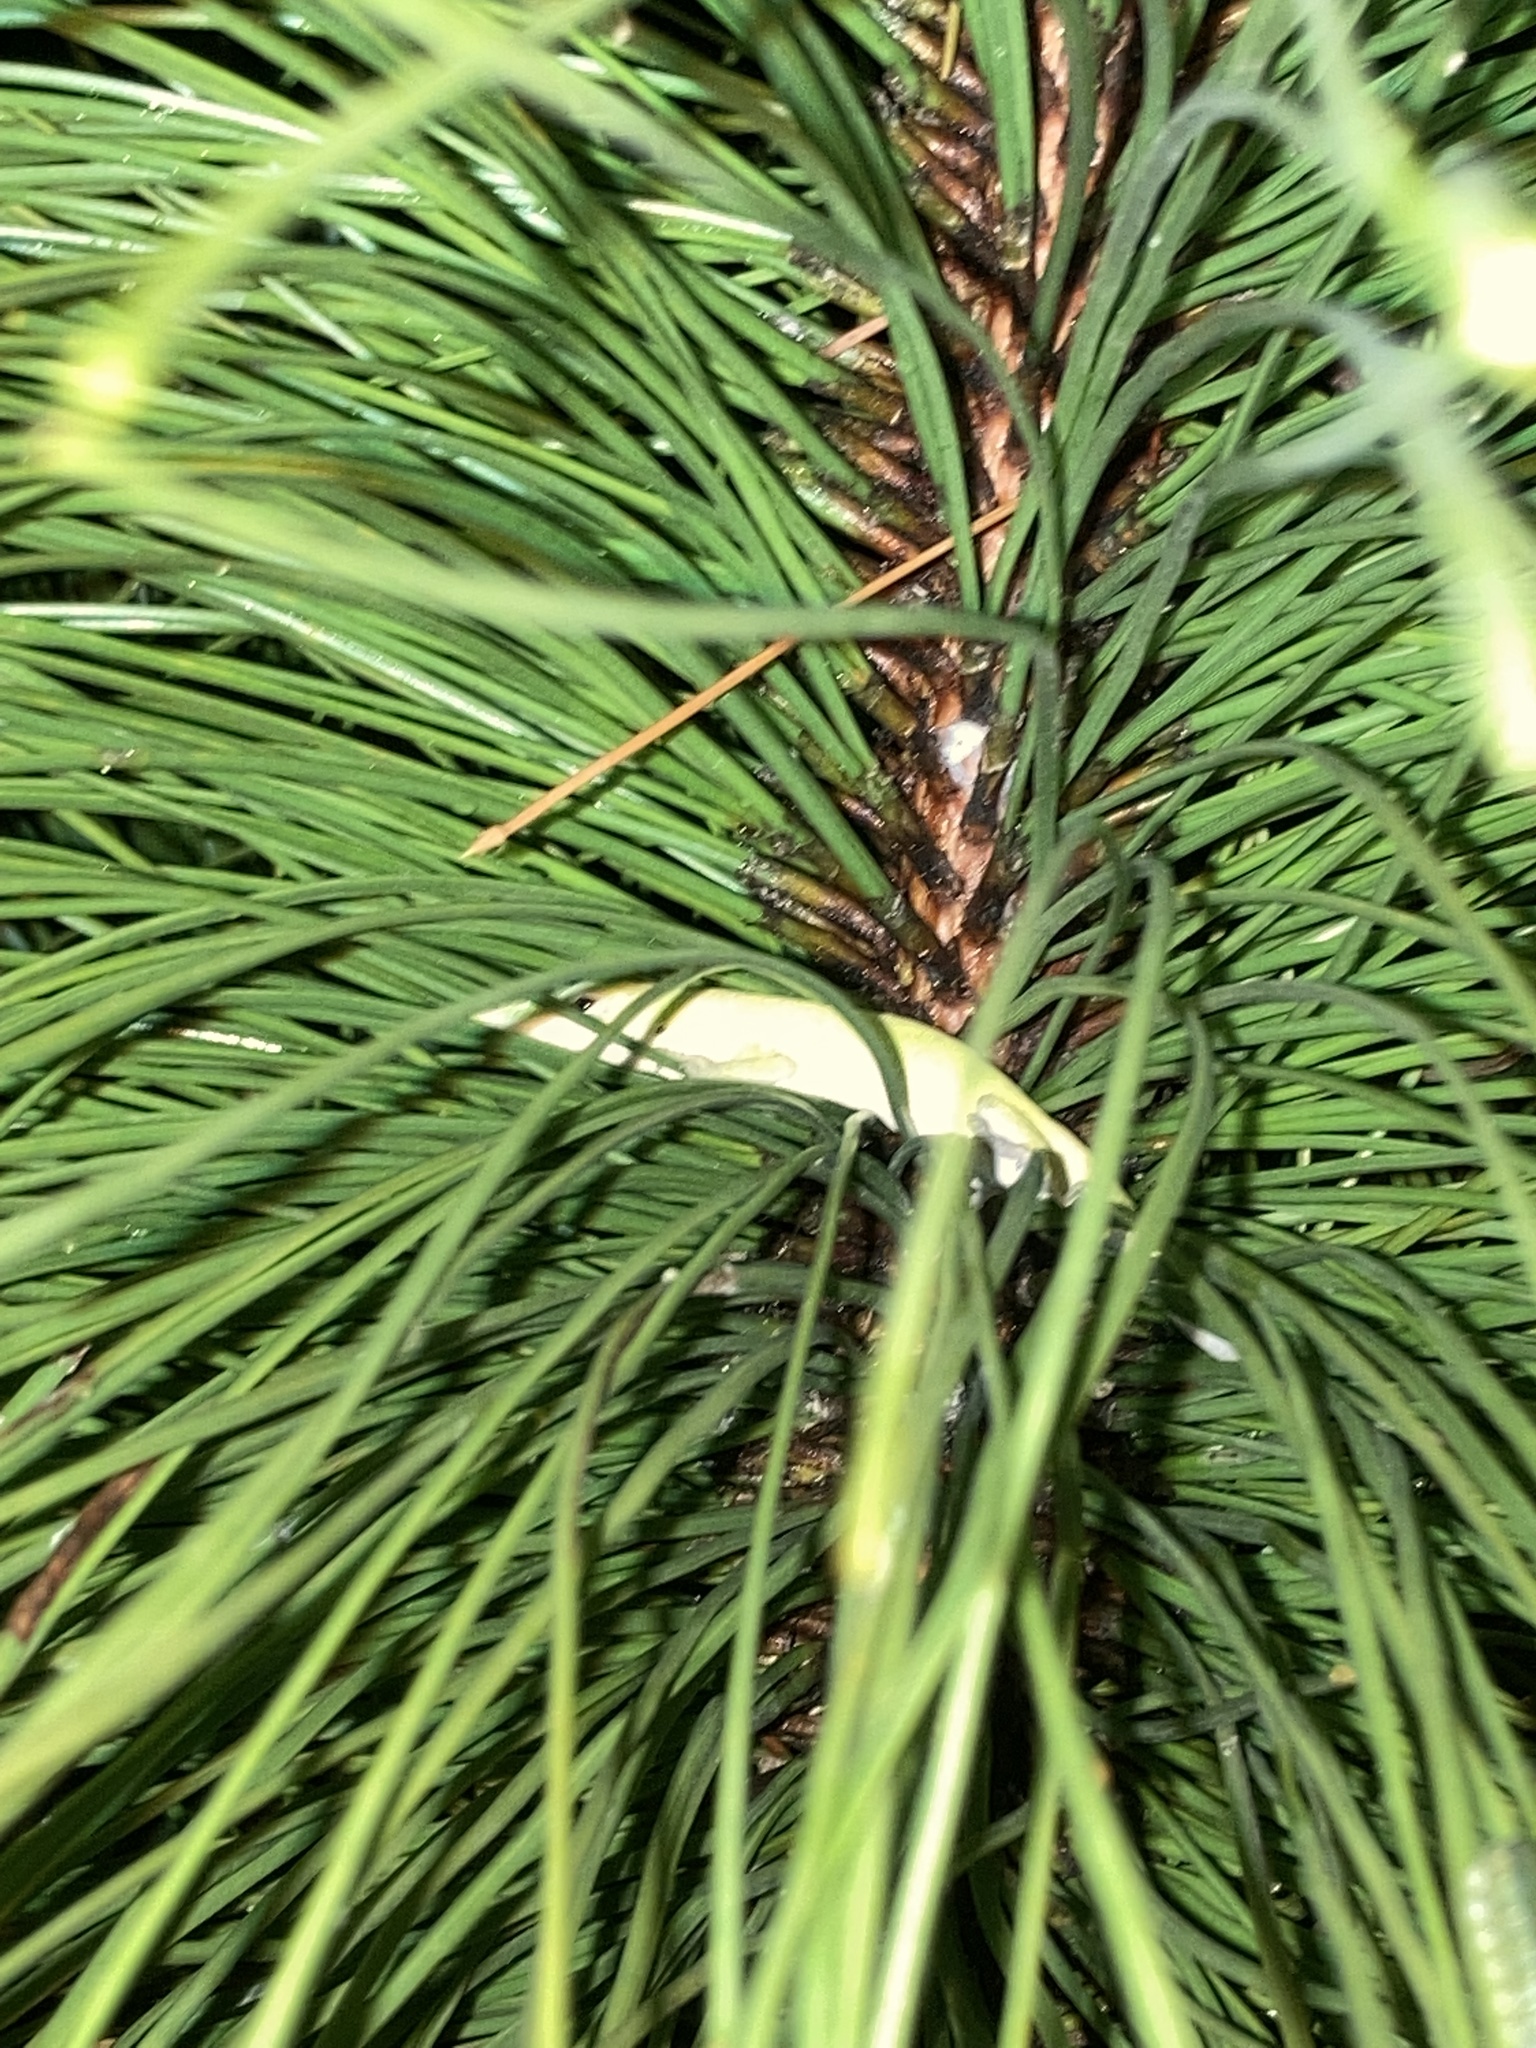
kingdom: Animalia
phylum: Chordata
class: Squamata
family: Dactyloidae
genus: Anolis
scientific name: Anolis carolinensis
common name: Green anole
